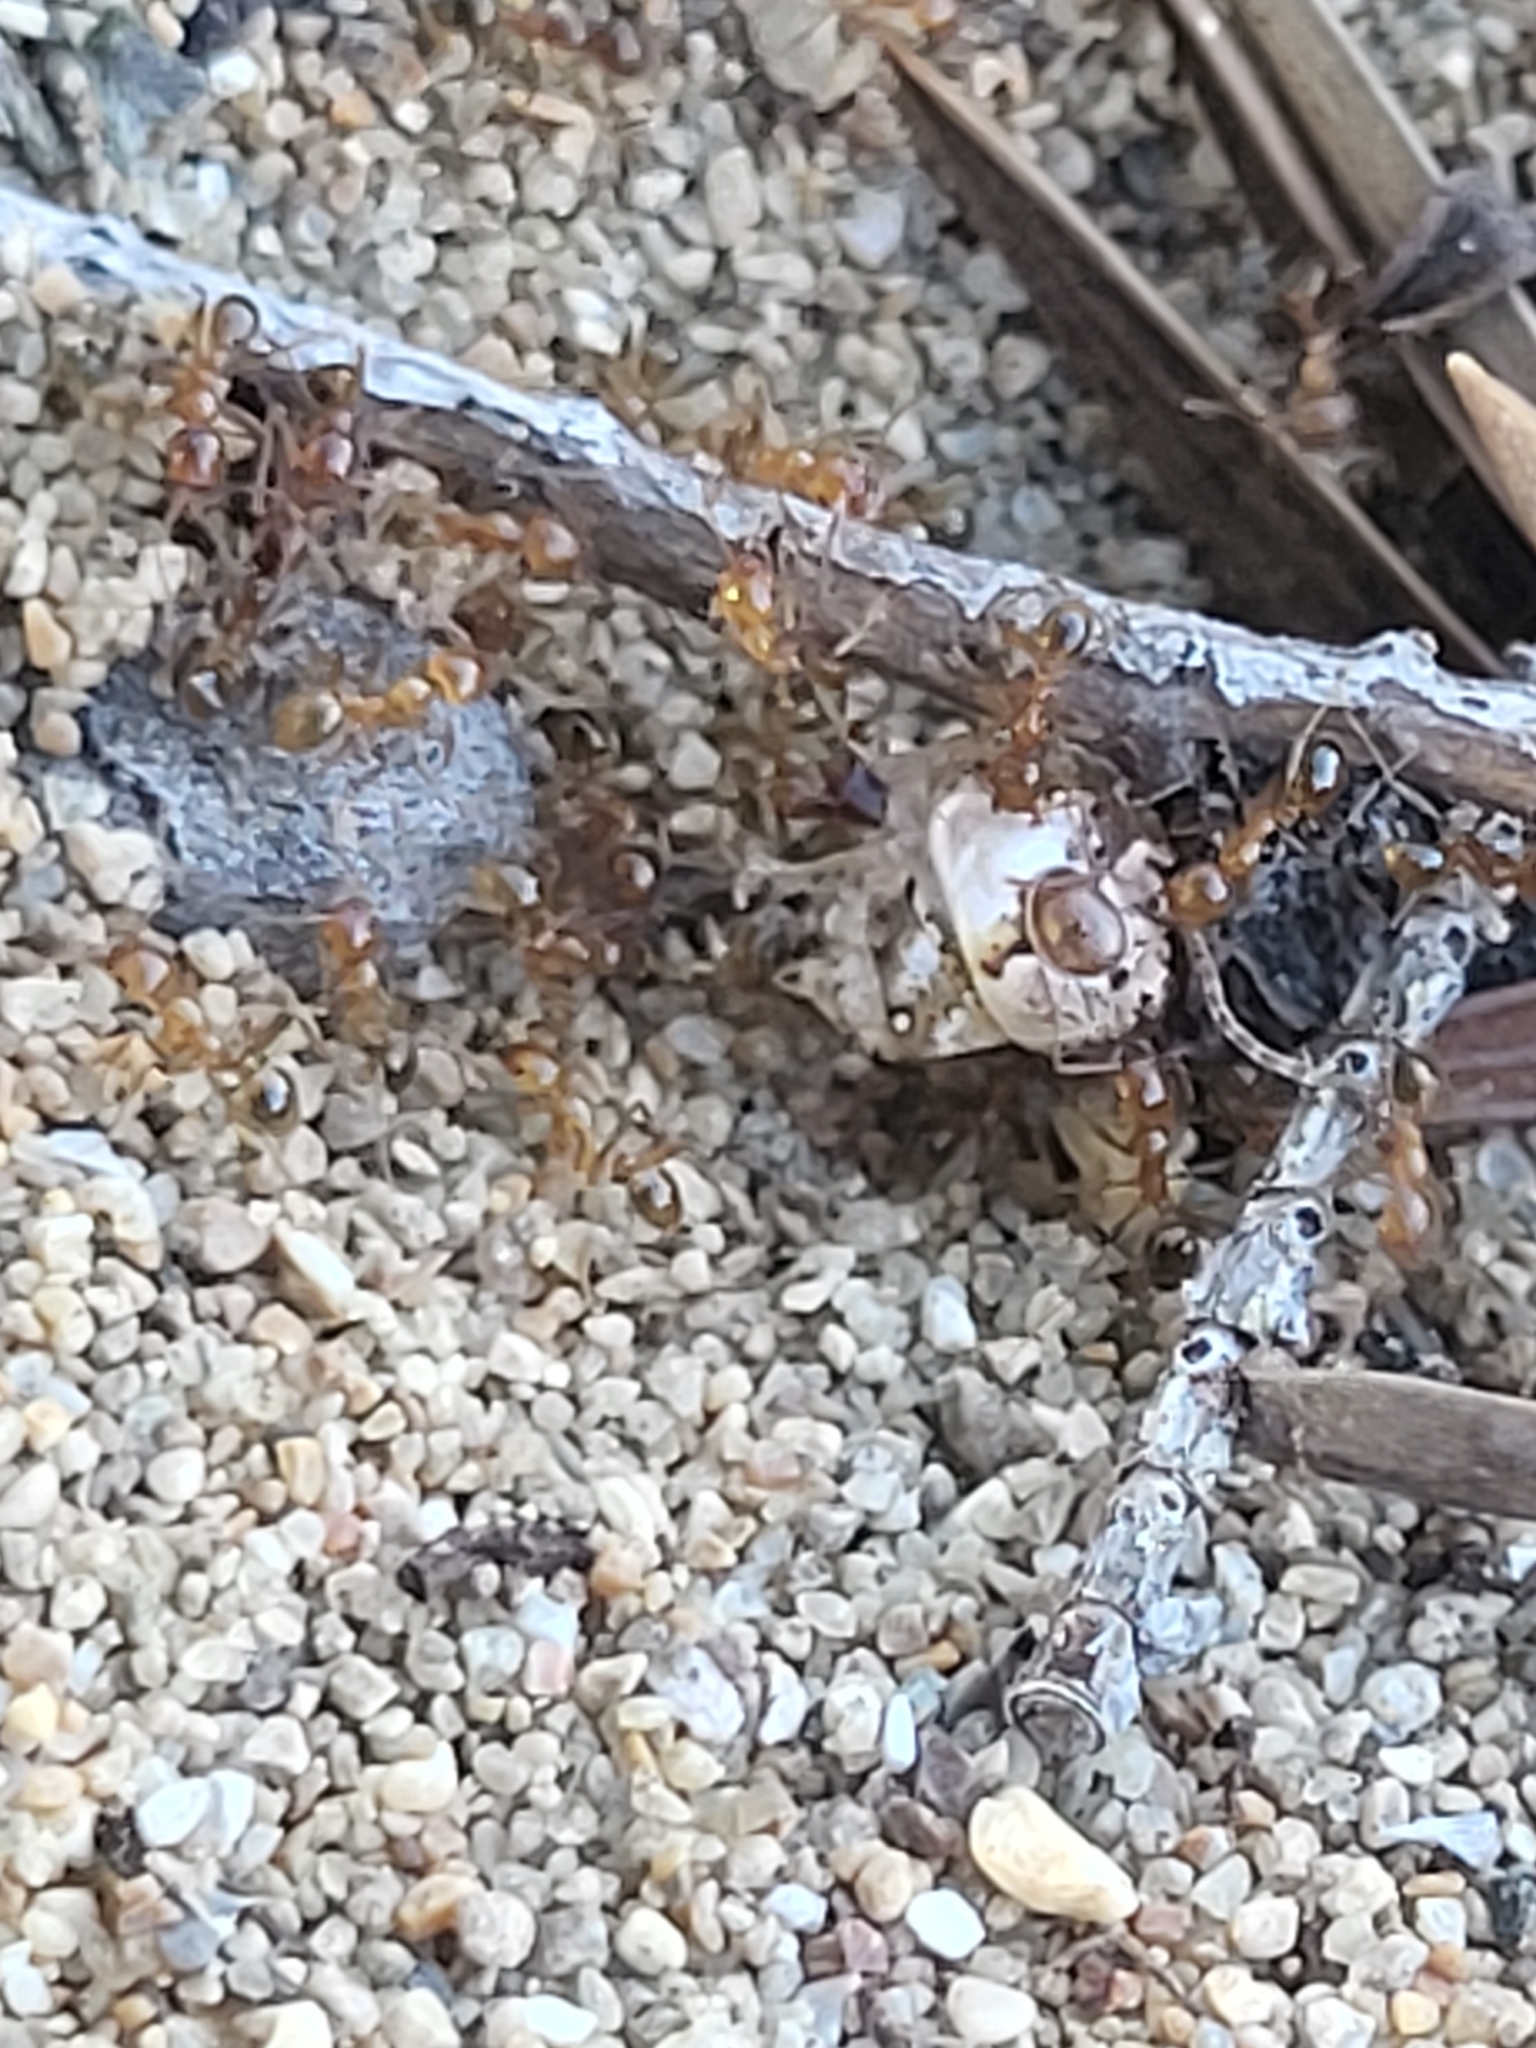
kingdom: Animalia
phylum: Arthropoda
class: Insecta
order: Hymenoptera
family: Formicidae
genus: Pheidole
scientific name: Pheidole
